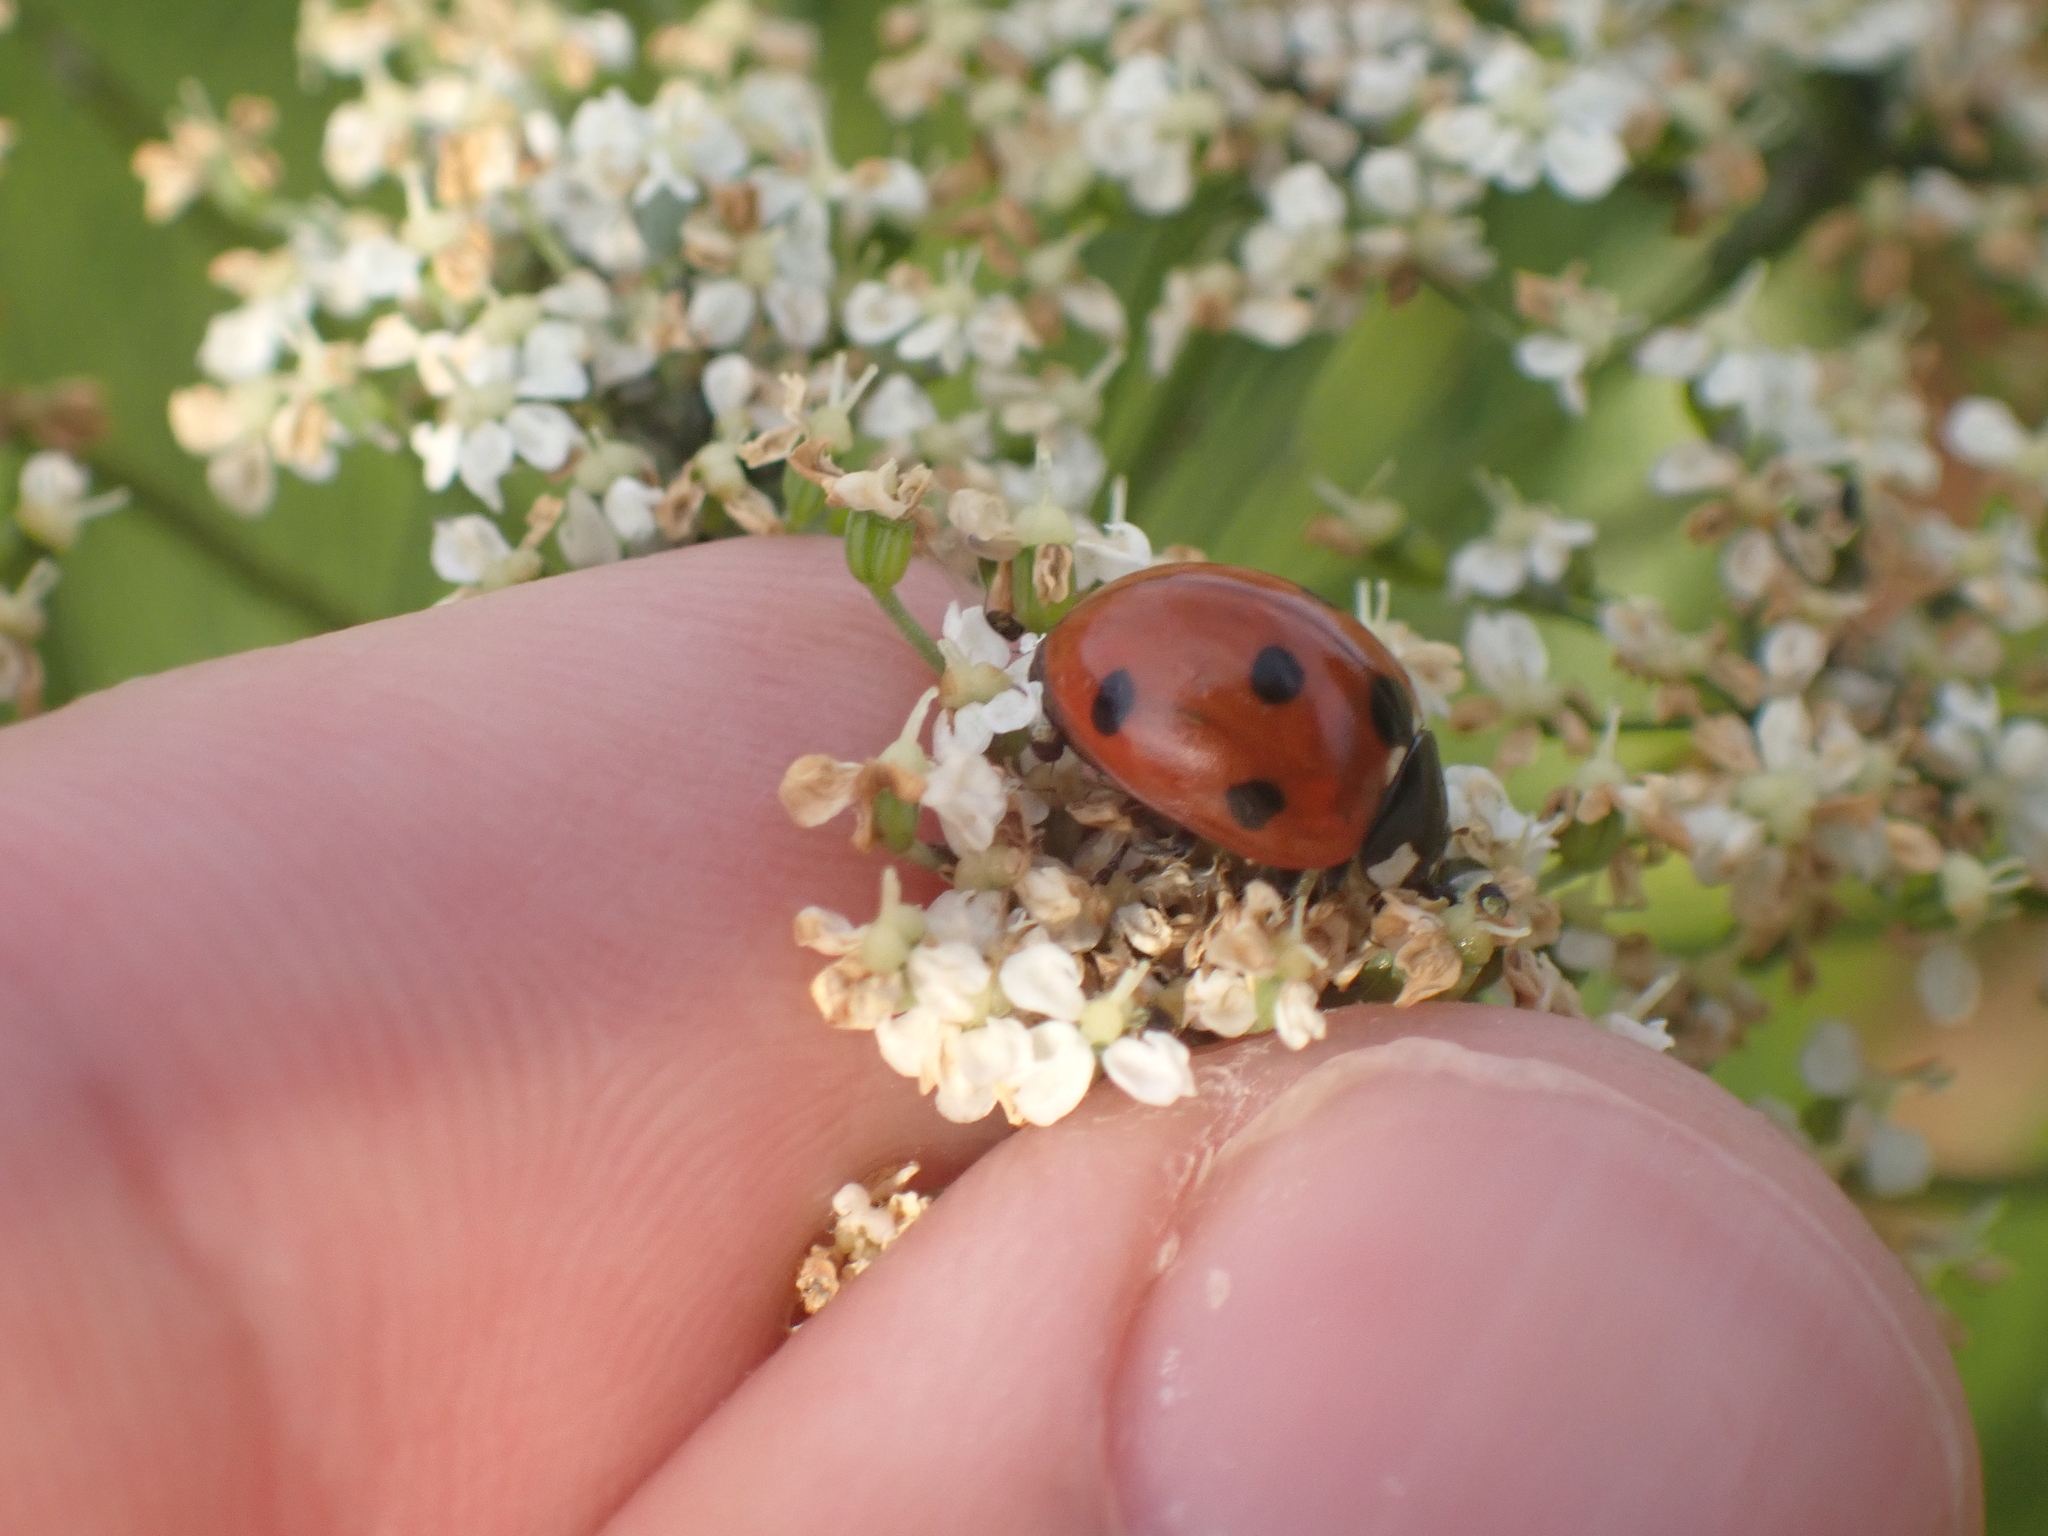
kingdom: Animalia
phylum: Arthropoda
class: Insecta
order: Coleoptera
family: Coccinellidae
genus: Coccinella
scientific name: Coccinella septempunctata
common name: Sevenspotted lady beetle
